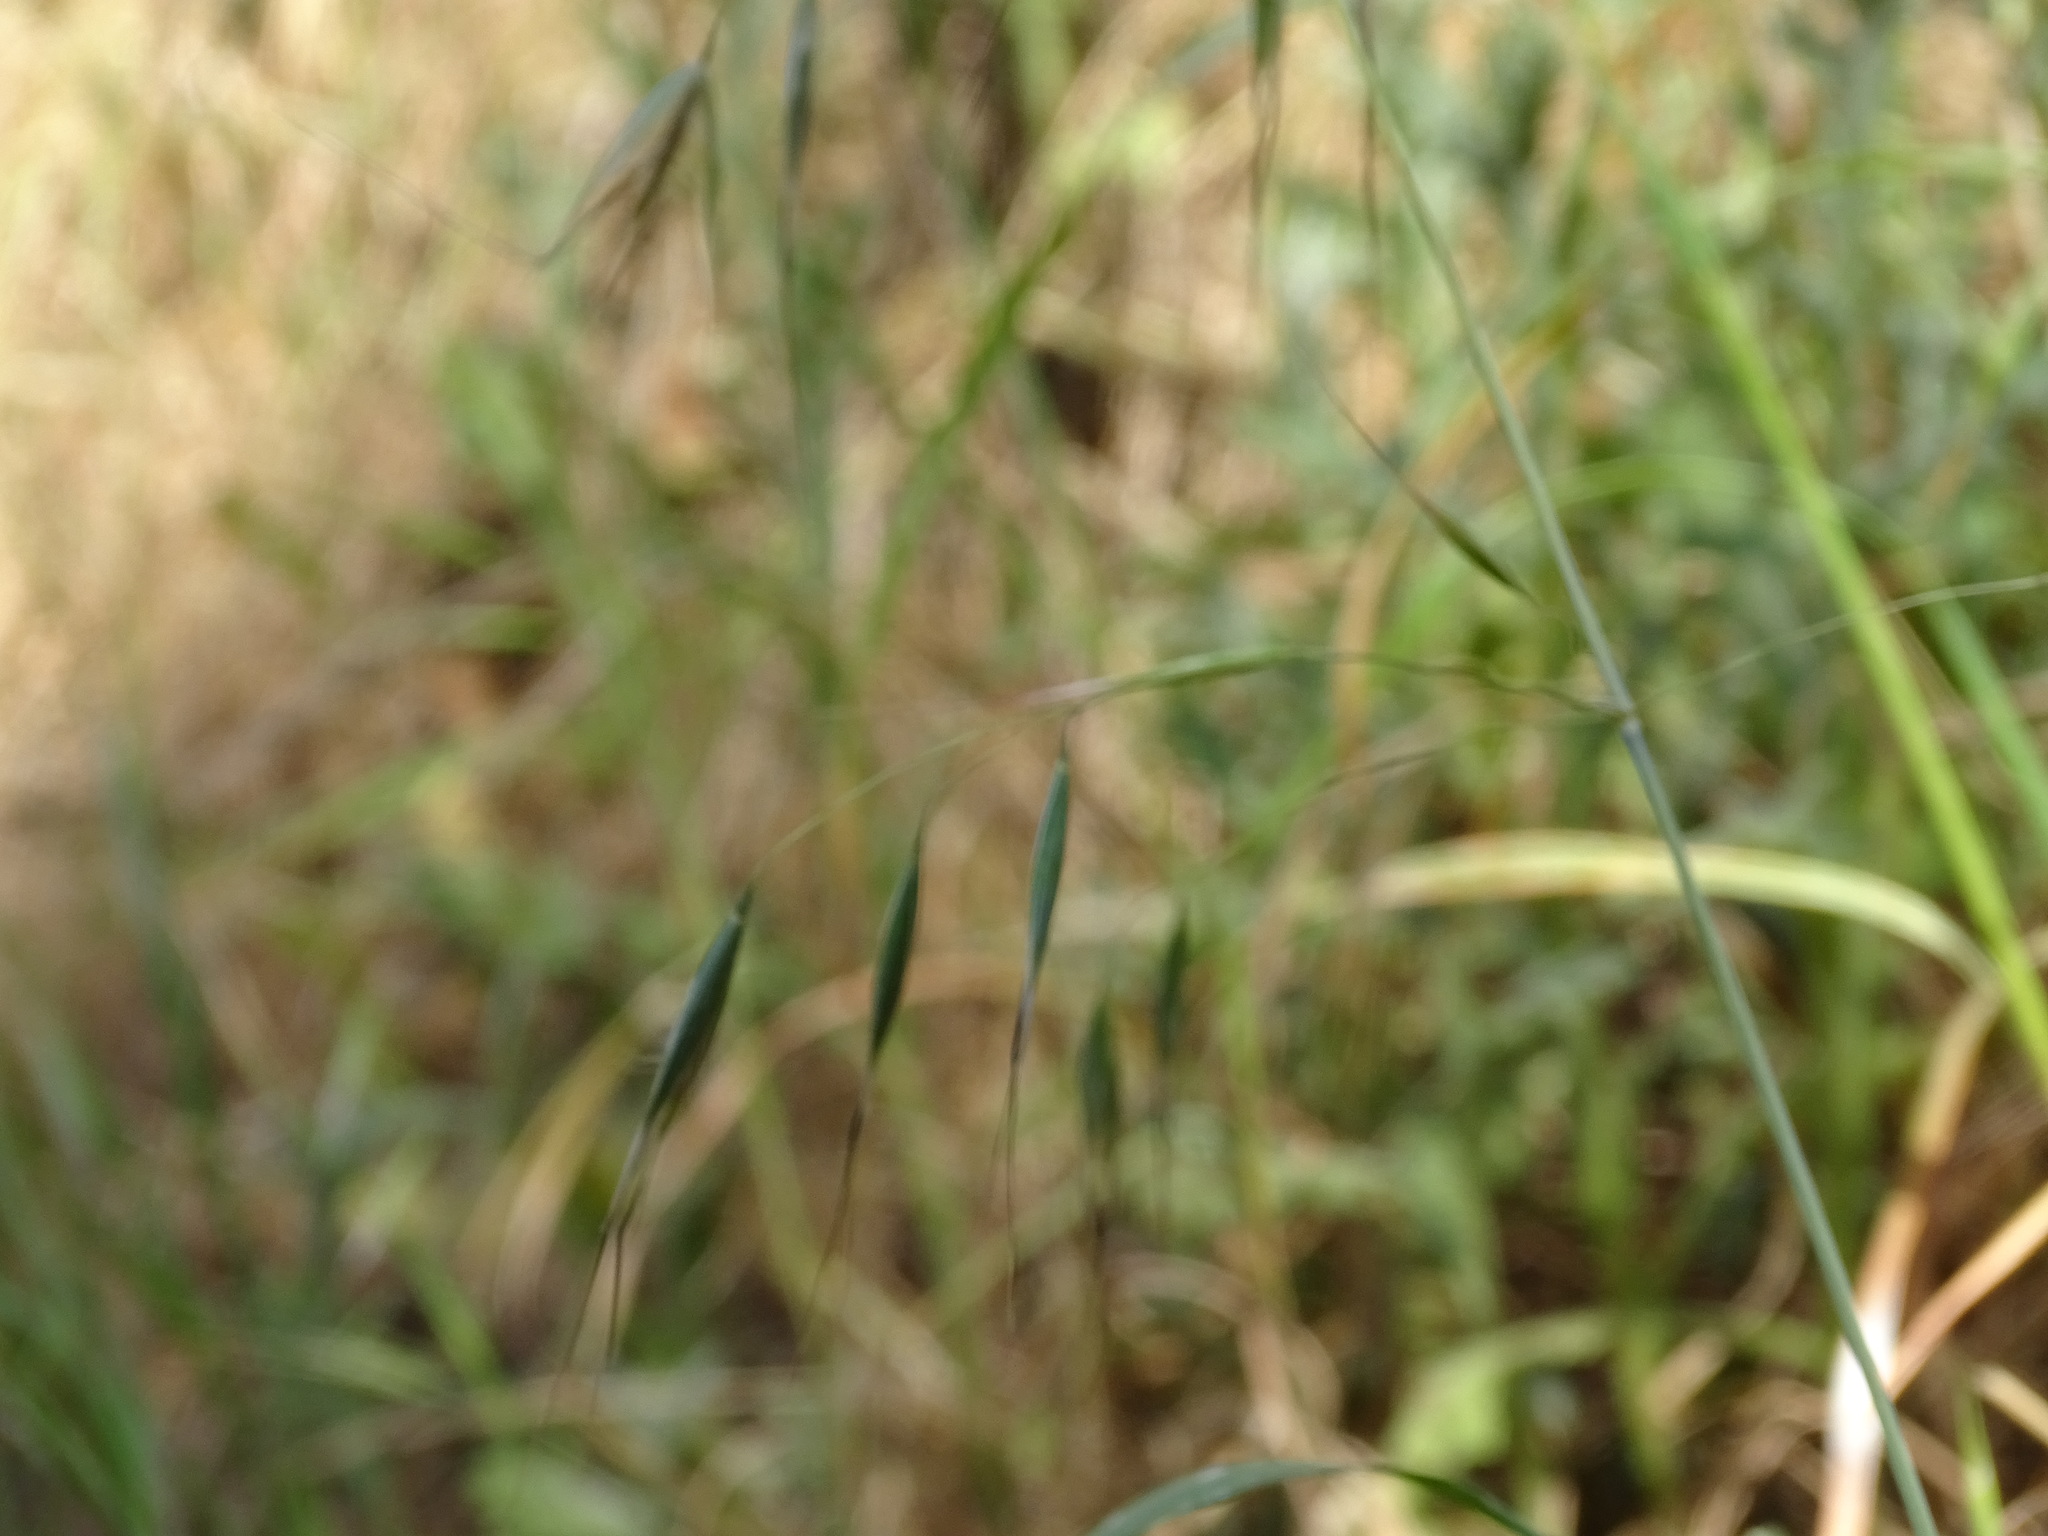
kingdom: Plantae
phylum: Tracheophyta
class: Liliopsida
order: Poales
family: Poaceae
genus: Avena
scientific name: Avena barbata
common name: Slender oat
